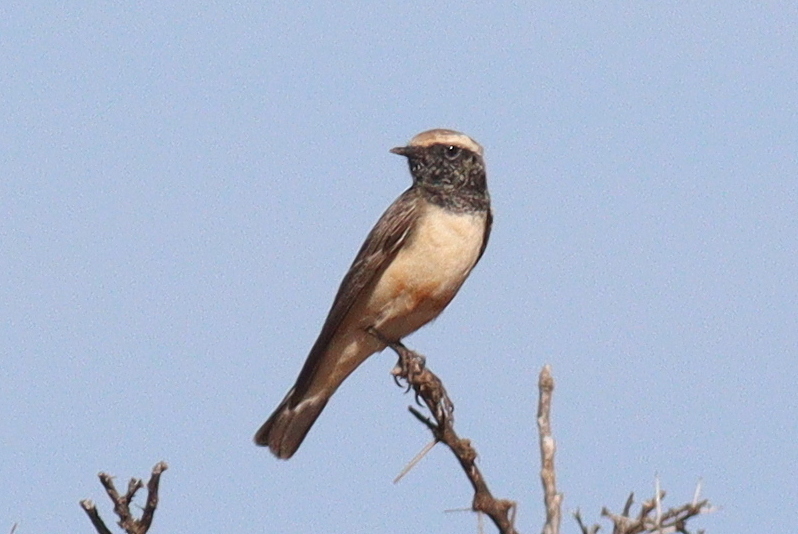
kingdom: Animalia
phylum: Chordata
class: Aves
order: Passeriformes
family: Muscicapidae
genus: Oenanthe
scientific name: Oenanthe pleschanka
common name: Pied wheatear
